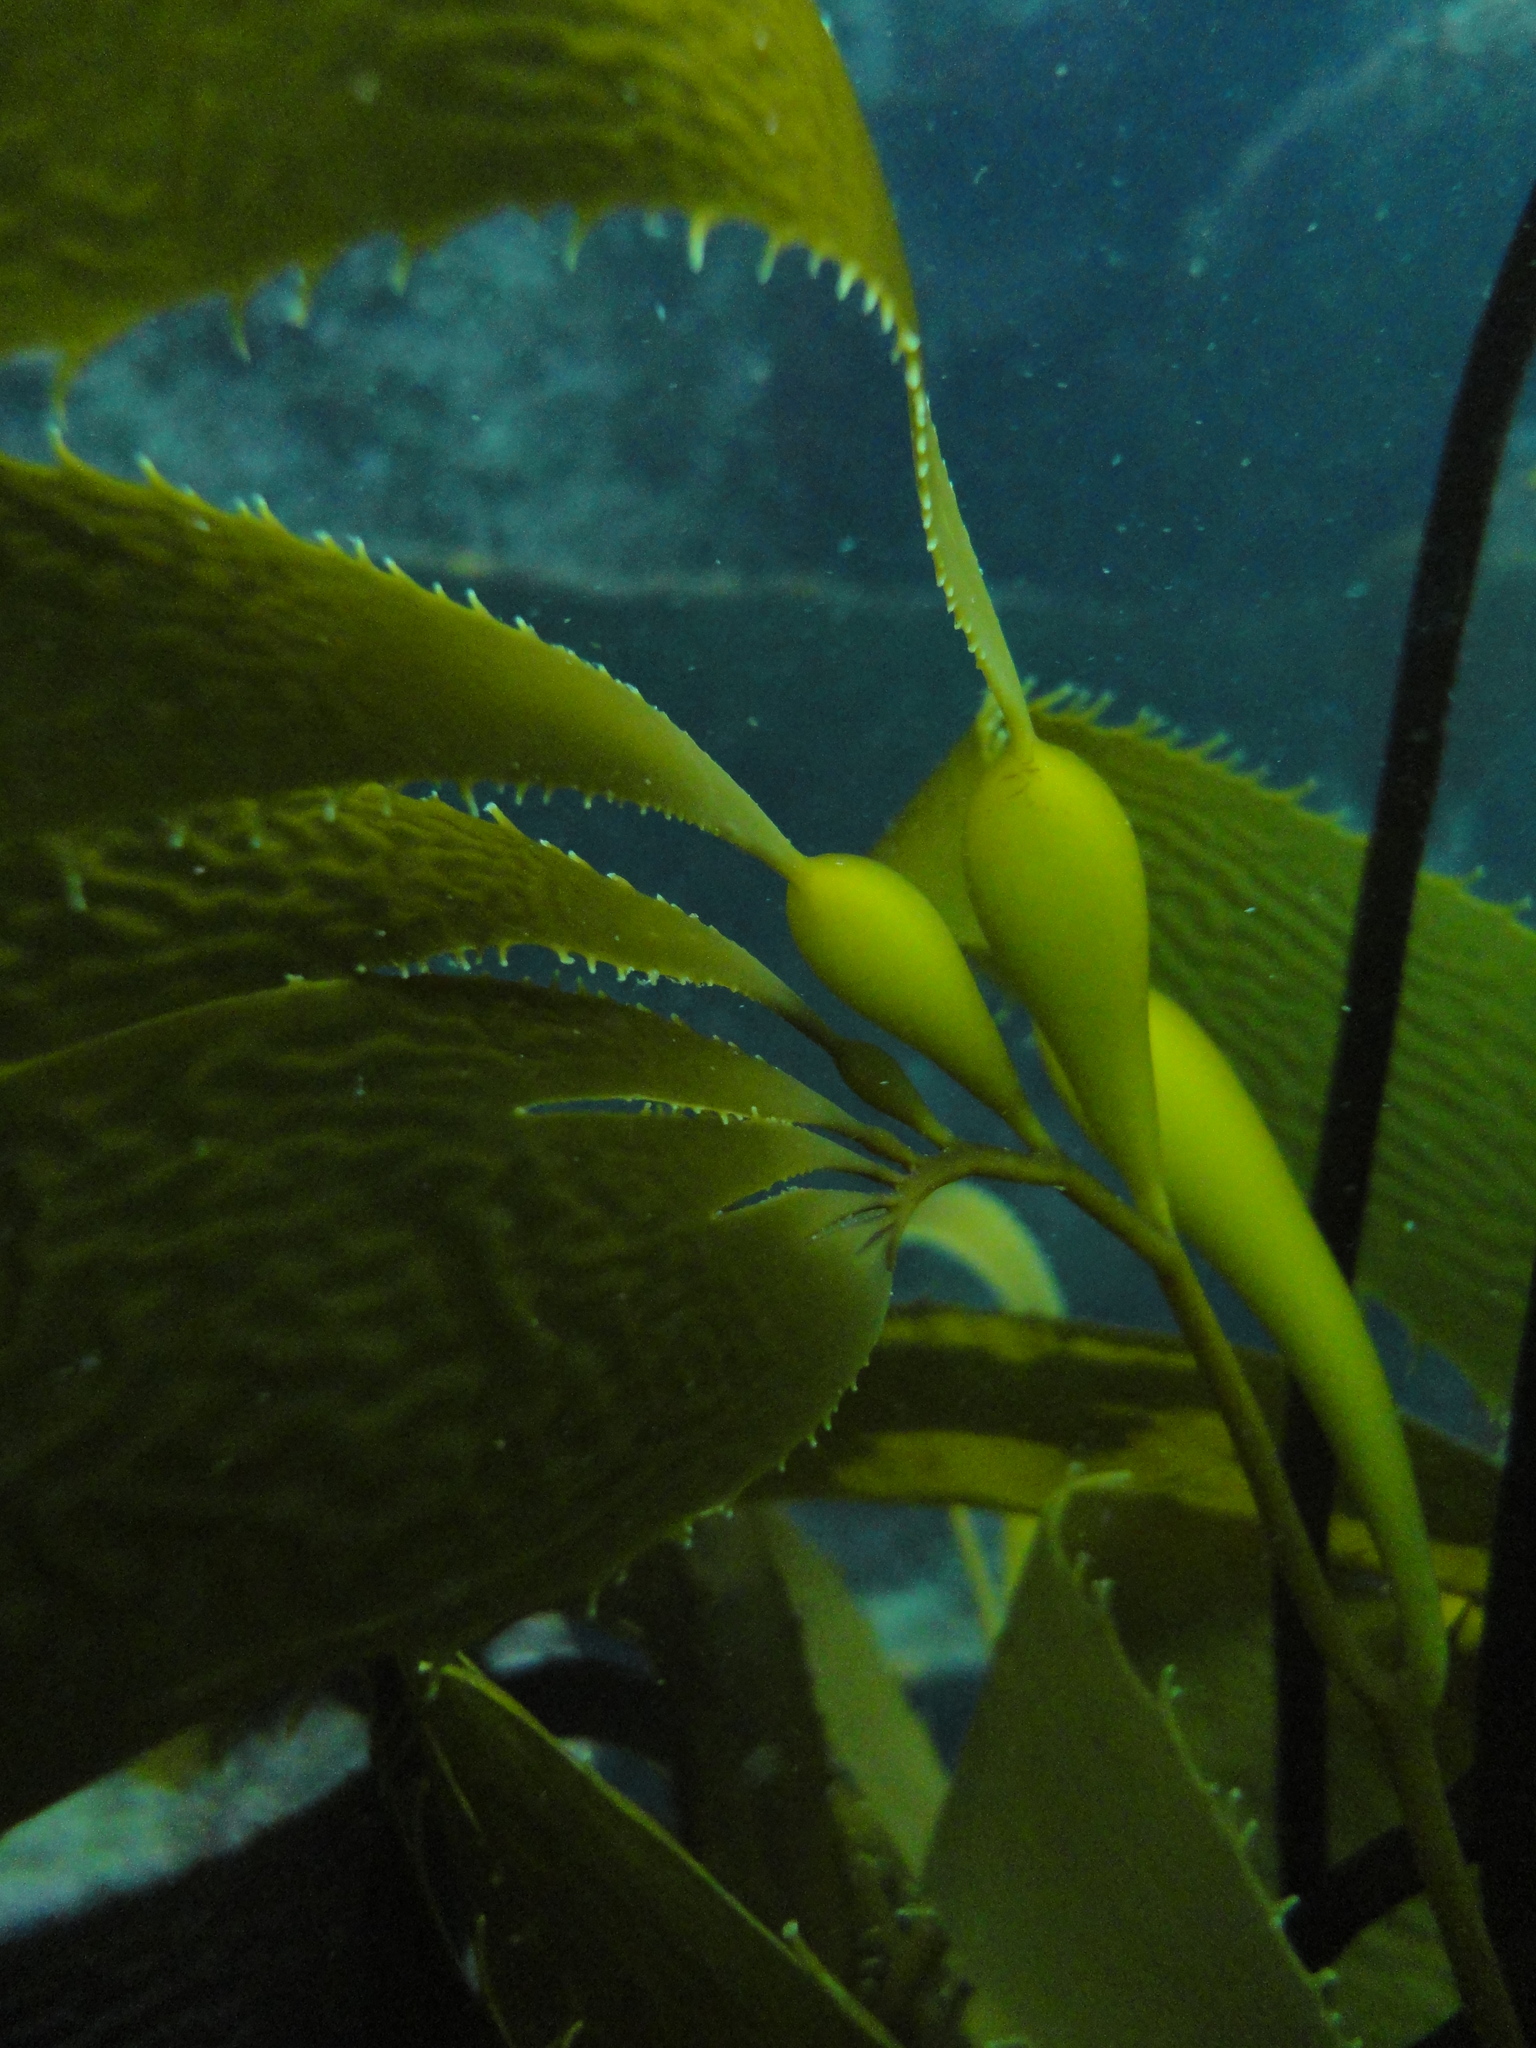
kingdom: Chromista
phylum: Ochrophyta
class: Phaeophyceae
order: Laminariales
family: Laminariaceae
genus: Macrocystis
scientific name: Macrocystis pyrifera
